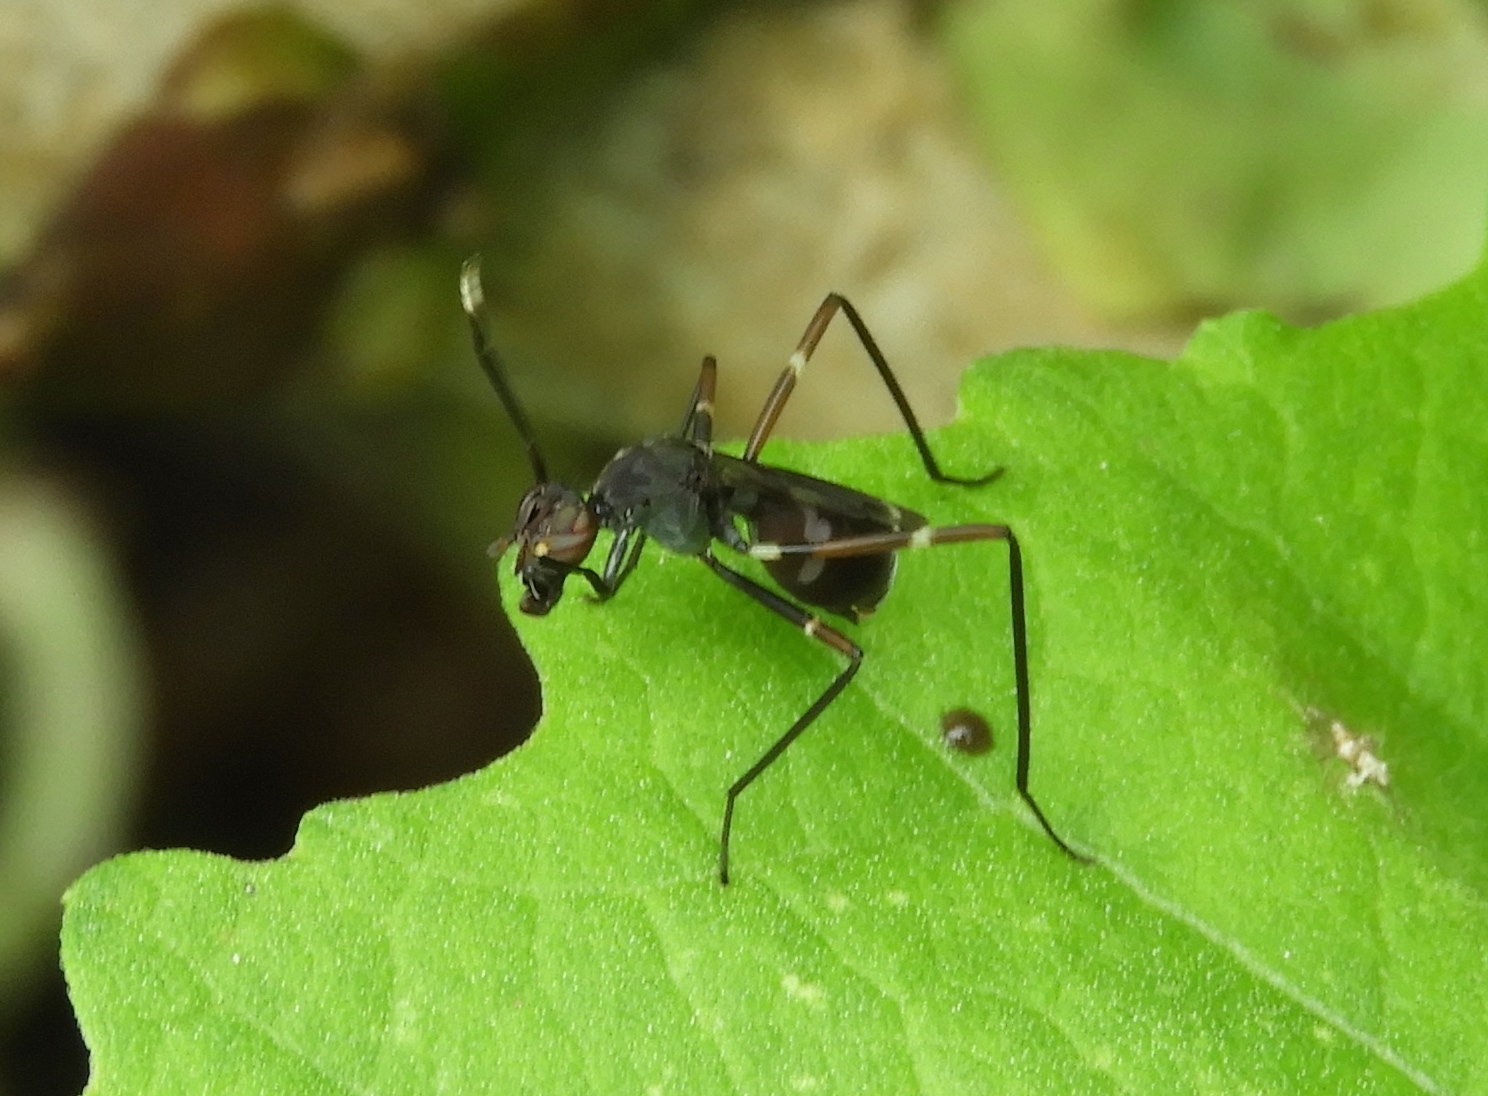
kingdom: Animalia
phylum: Arthropoda
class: Insecta
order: Diptera
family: Micropezidae
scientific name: Micropezidae
